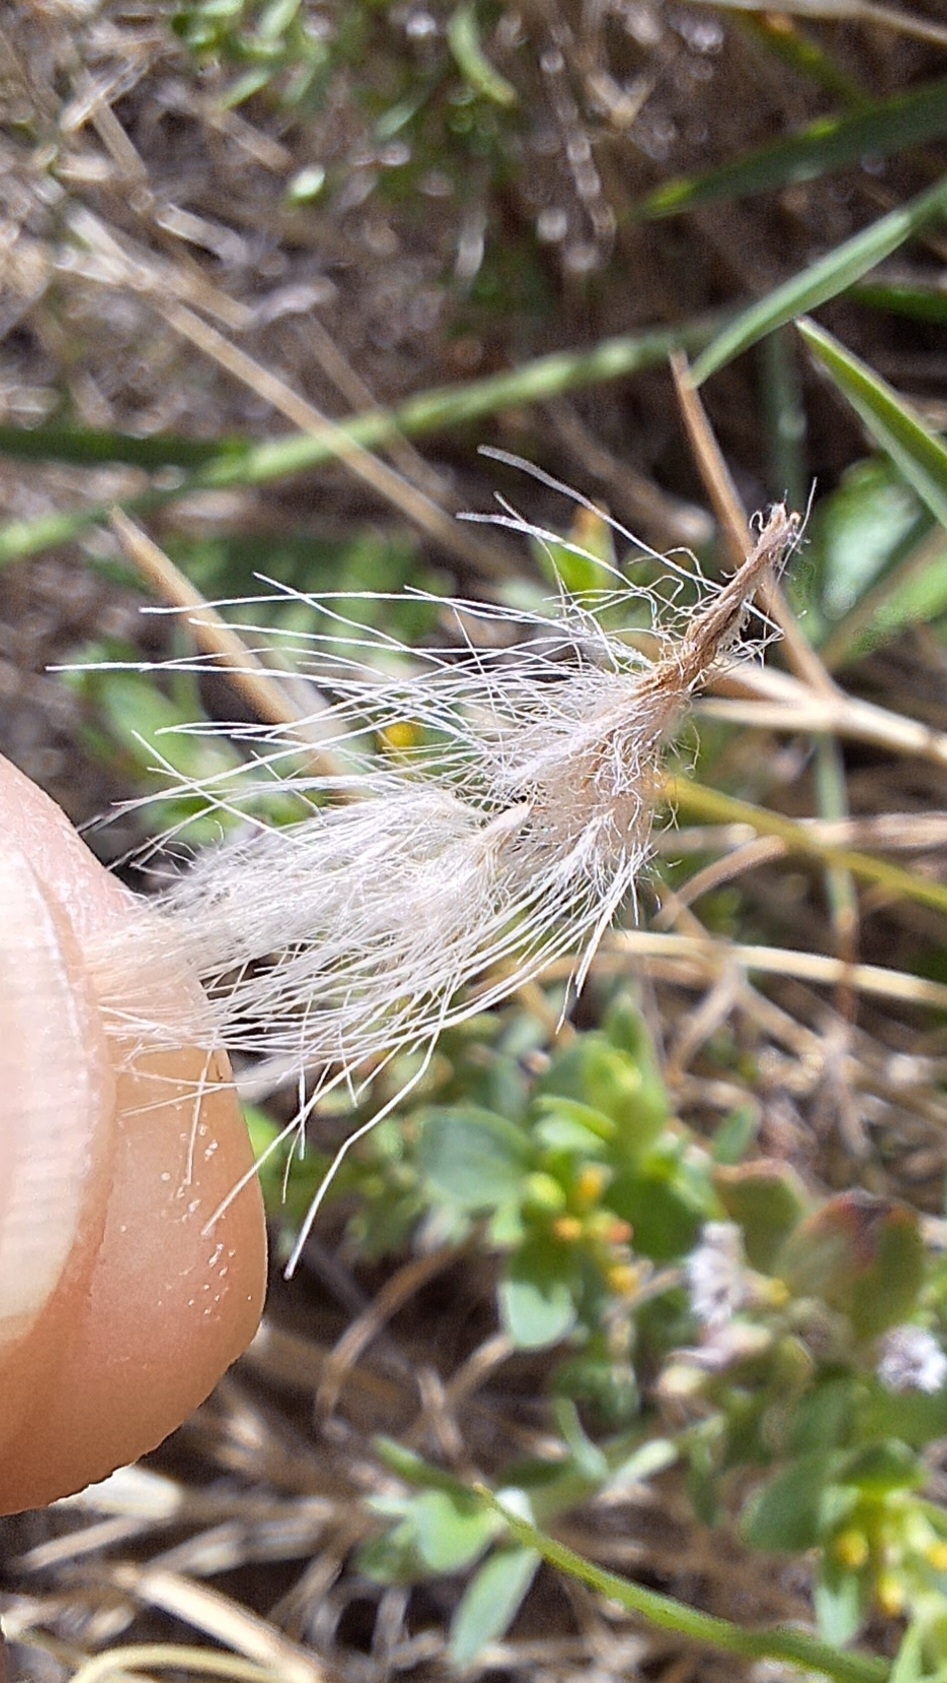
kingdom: Plantae
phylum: Tracheophyta
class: Liliopsida
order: Poales
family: Poaceae
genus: Cenchrus
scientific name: Cenchrus setaceus
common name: Crimson fountaingrass
